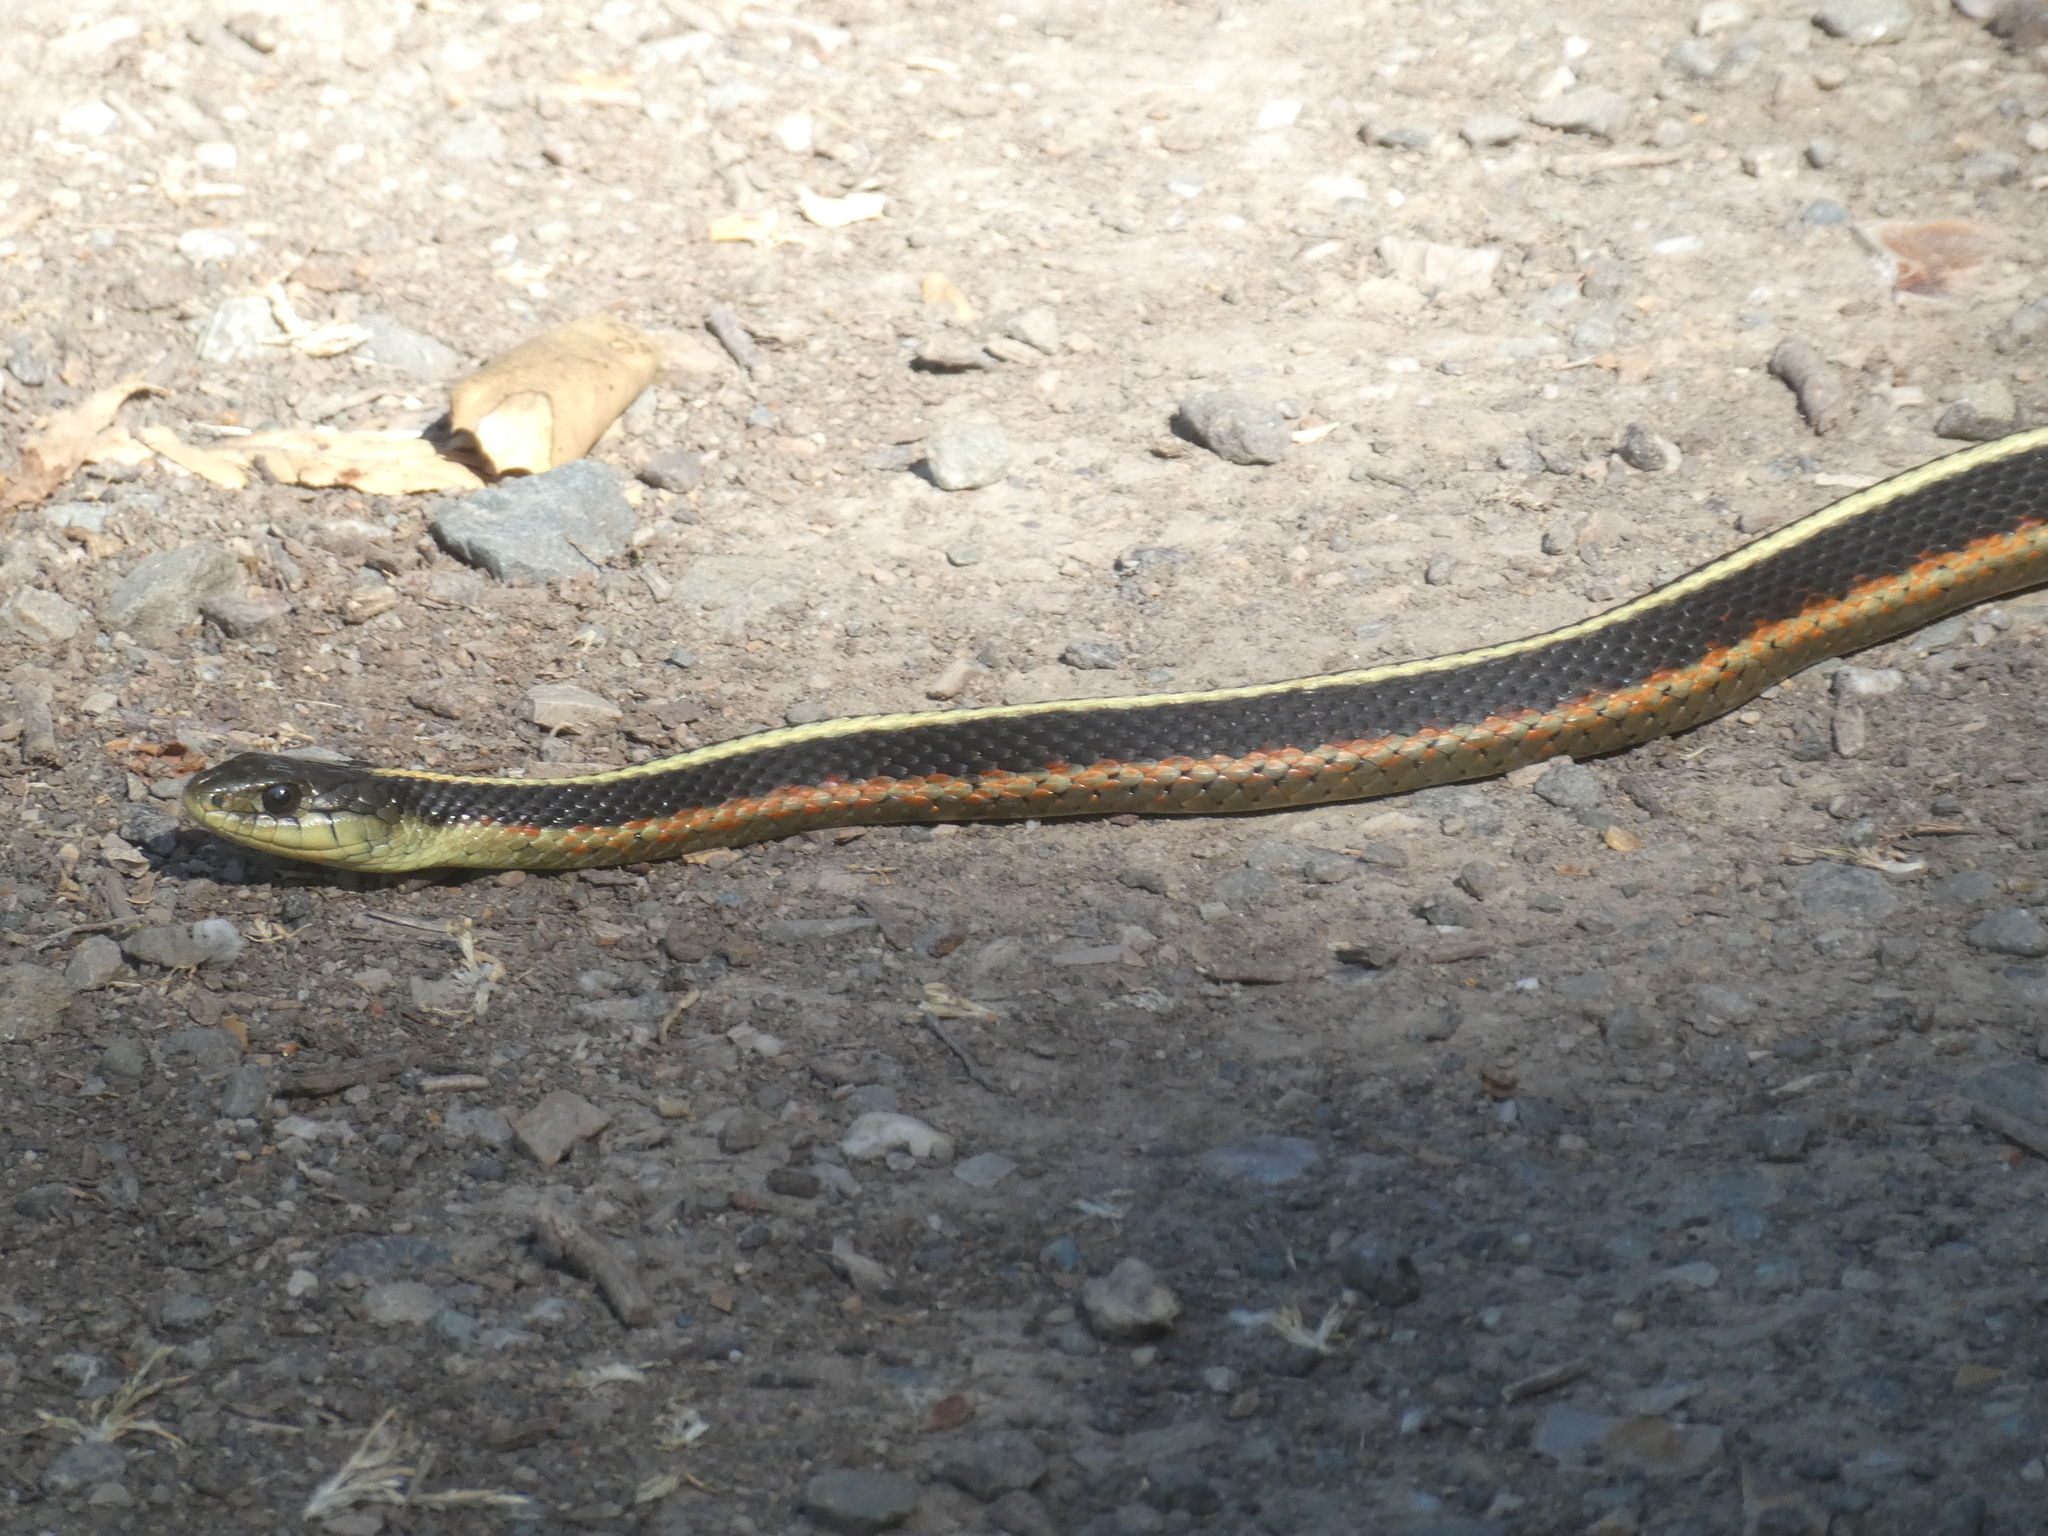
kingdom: Animalia
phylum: Chordata
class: Squamata
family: Colubridae
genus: Thamnophis
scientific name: Thamnophis elegans
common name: Western terrestrial garter snake
